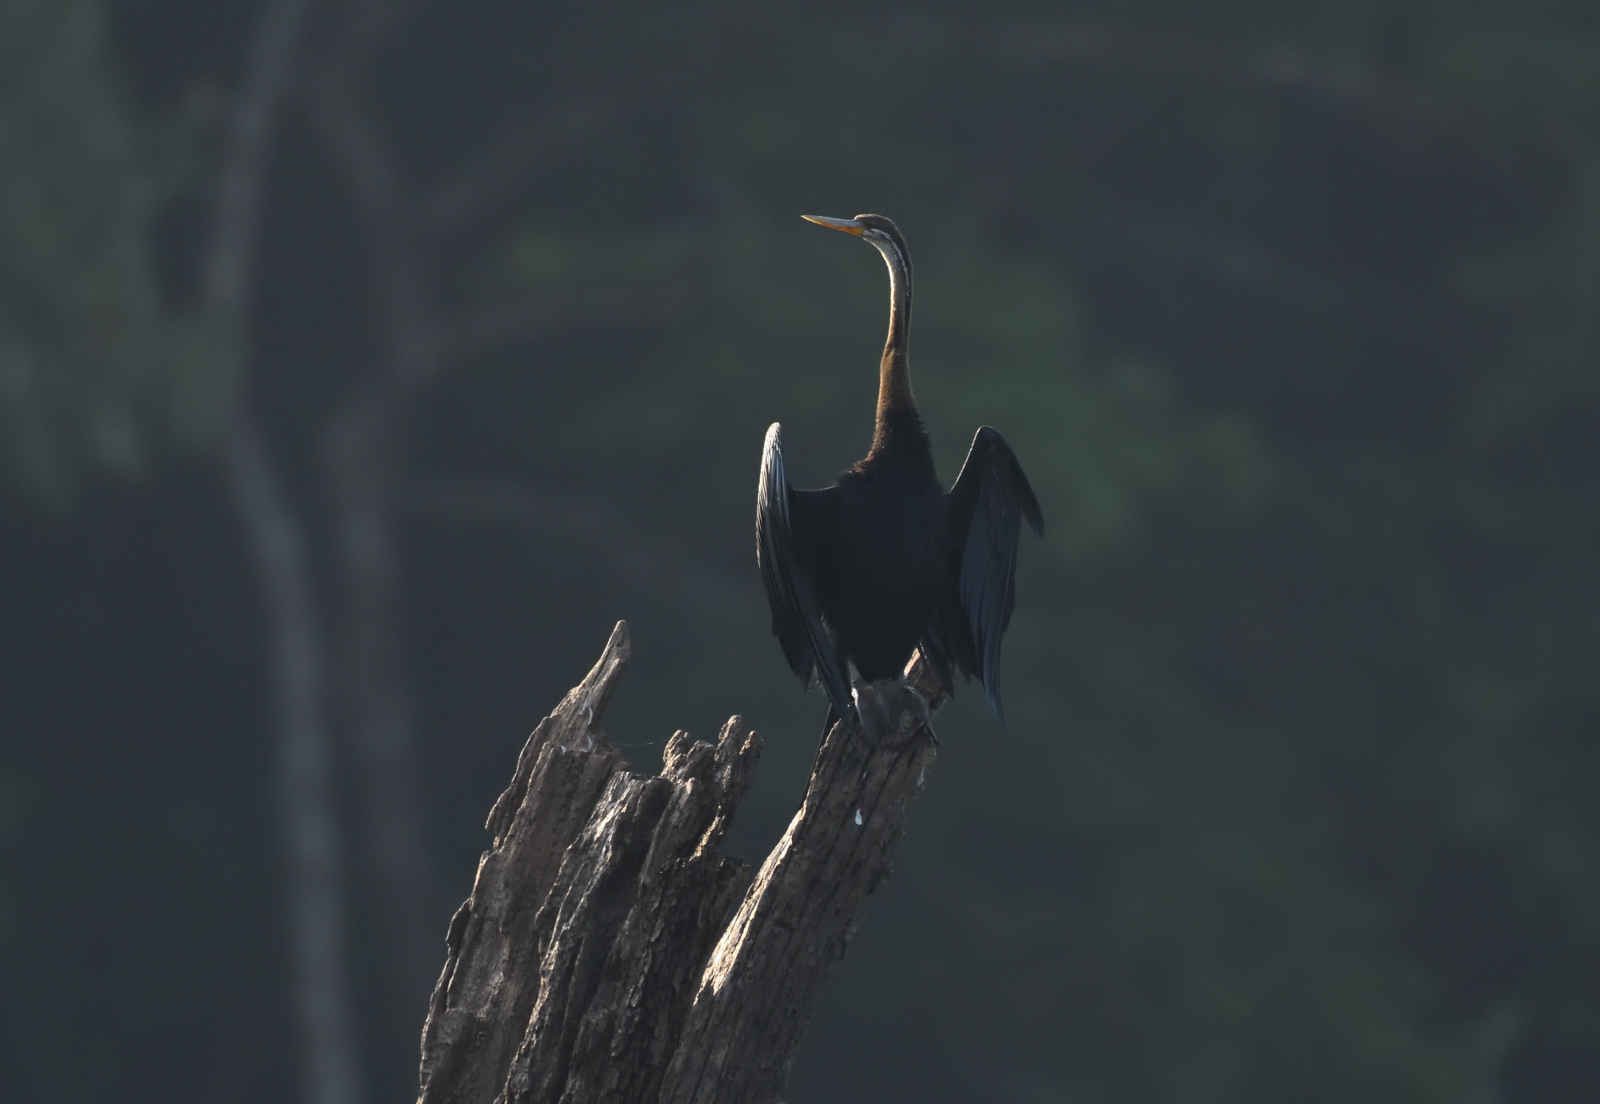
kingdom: Animalia
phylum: Chordata
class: Aves
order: Suliformes
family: Anhingidae
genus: Anhinga
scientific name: Anhinga melanogaster
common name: Oriental darter
